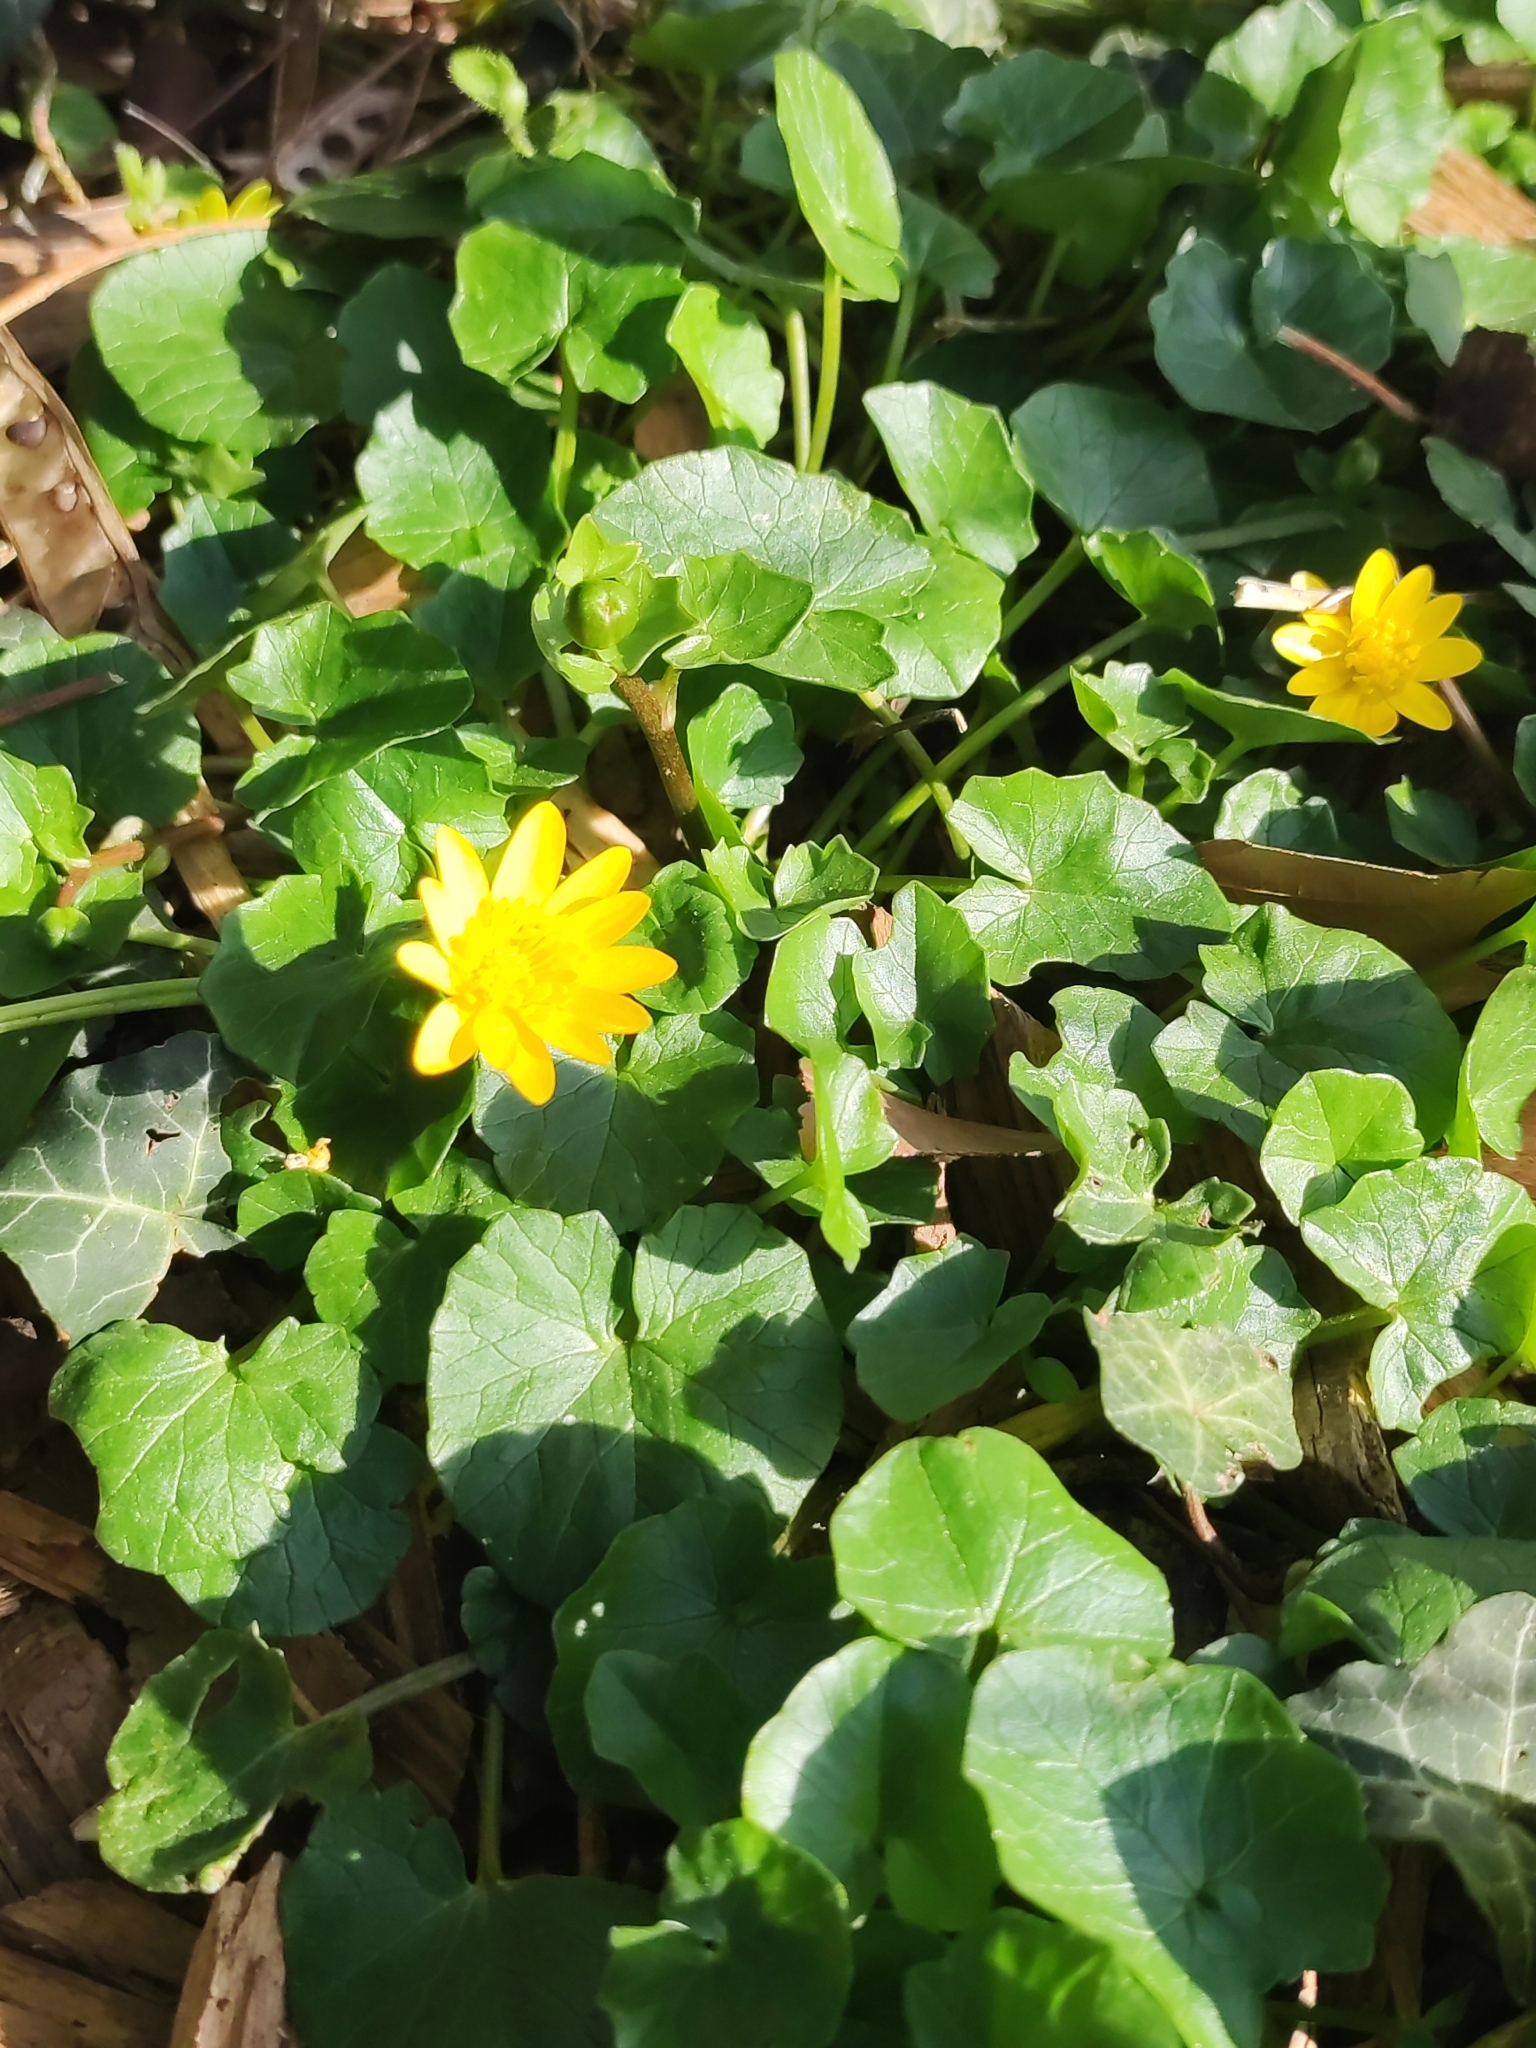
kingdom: Plantae
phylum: Tracheophyta
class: Magnoliopsida
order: Ranunculales
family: Ranunculaceae
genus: Ficaria
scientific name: Ficaria verna
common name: Lesser celandine
